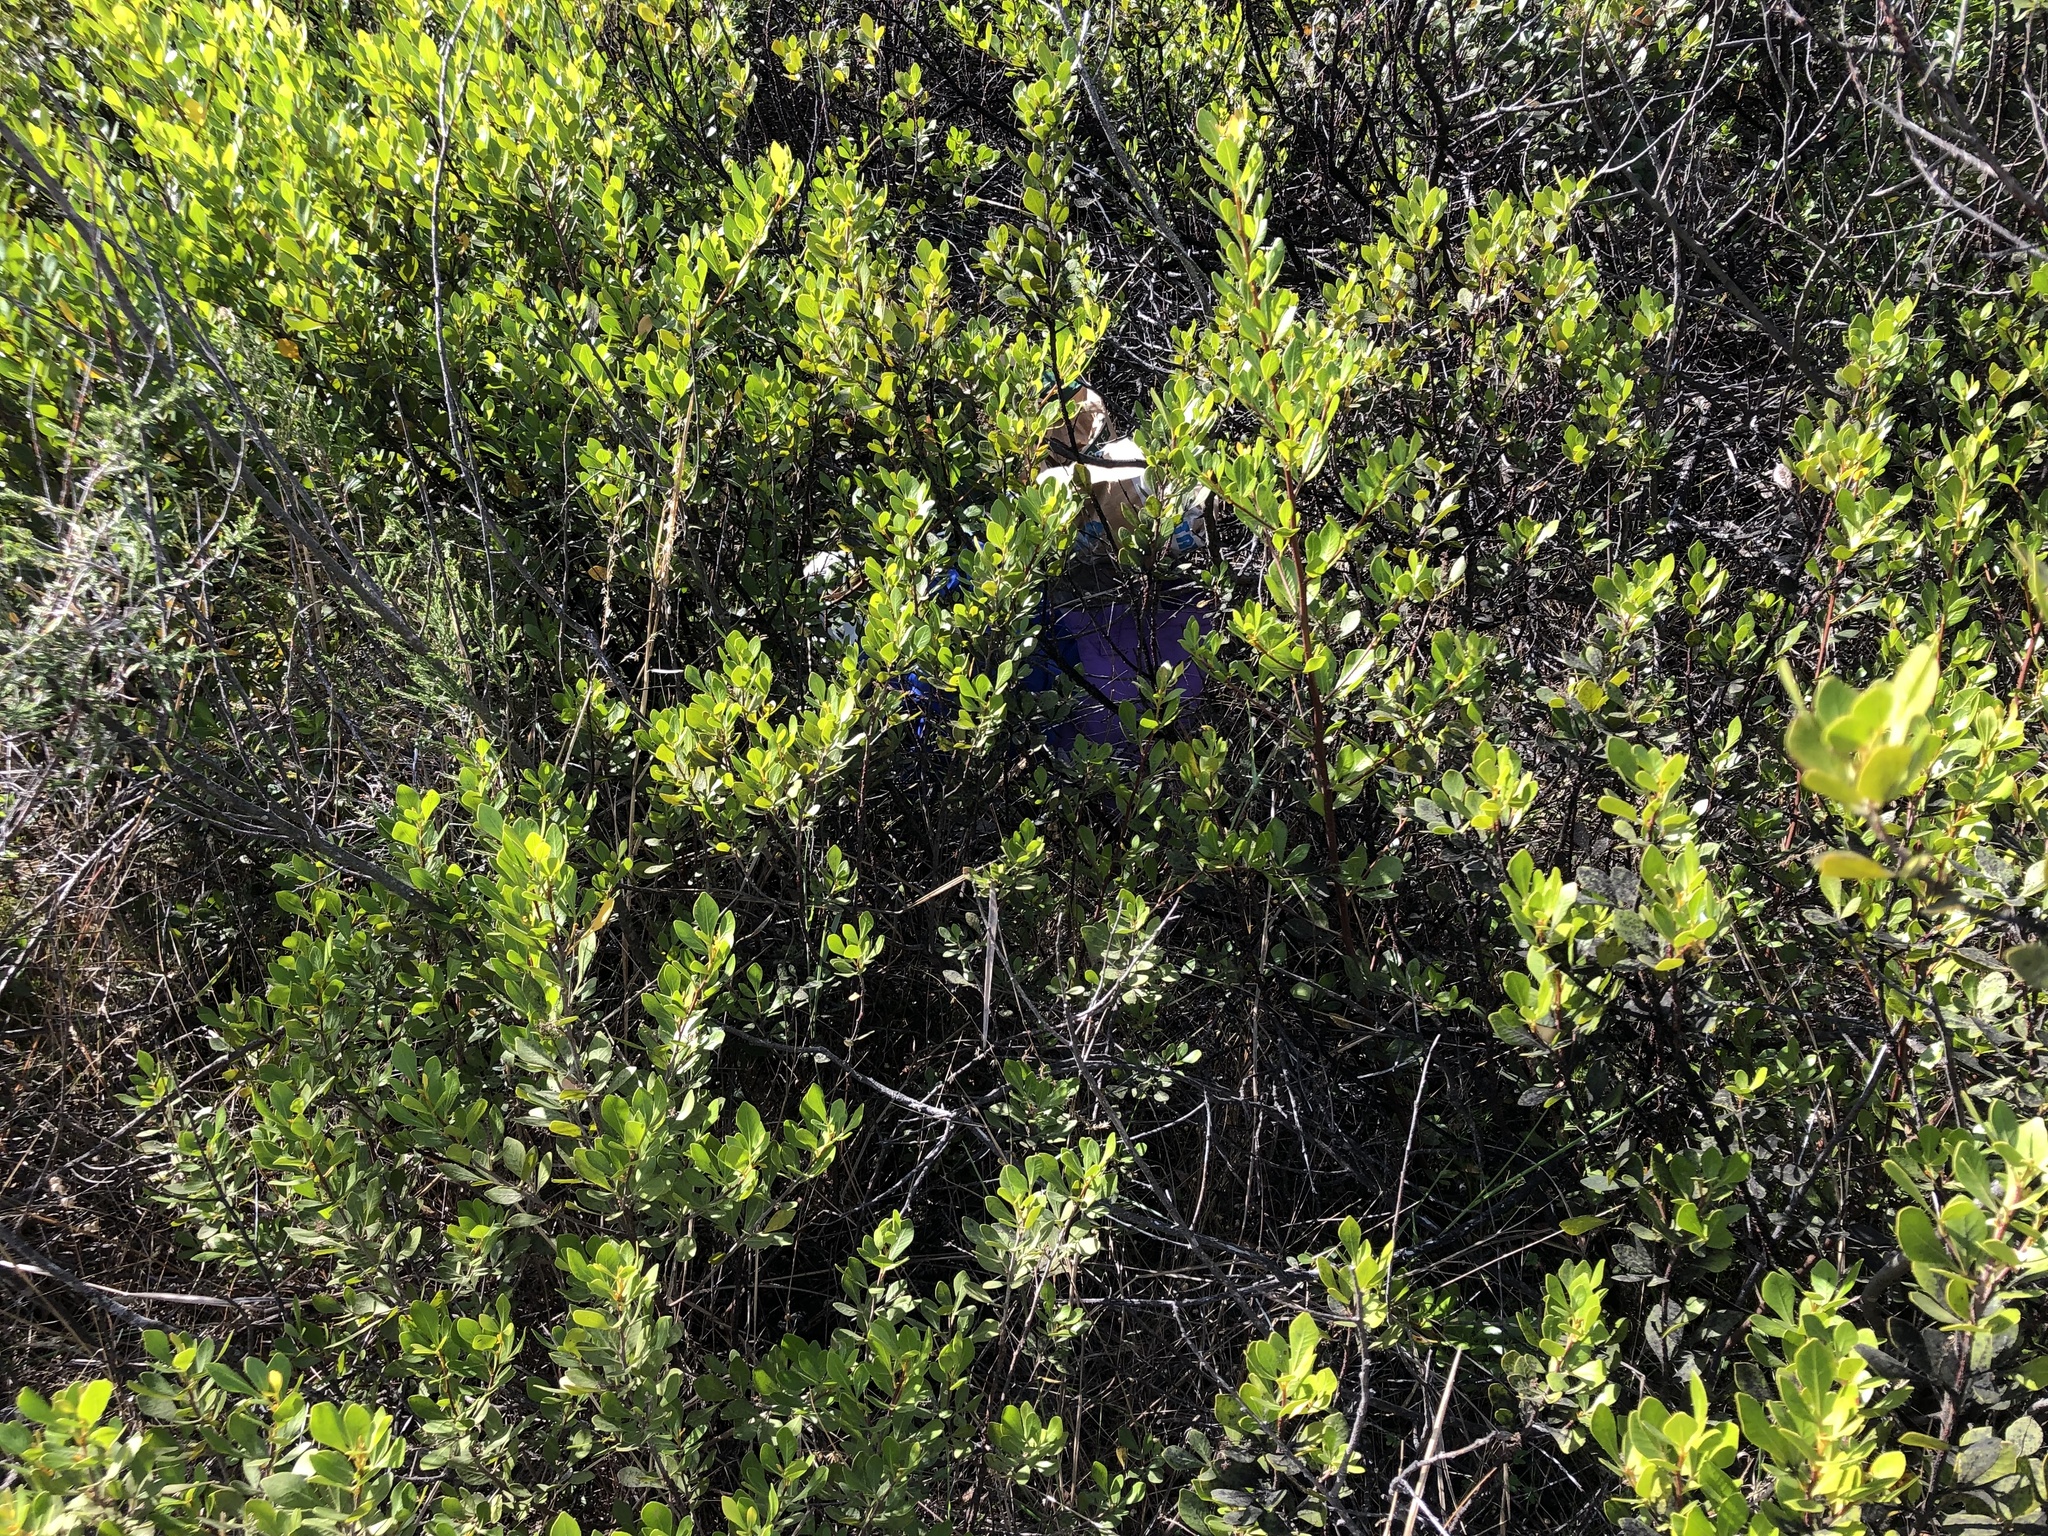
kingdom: Plantae
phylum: Tracheophyta
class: Magnoliopsida
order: Sapindales
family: Anacardiaceae
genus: Searsia
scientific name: Searsia lucida
